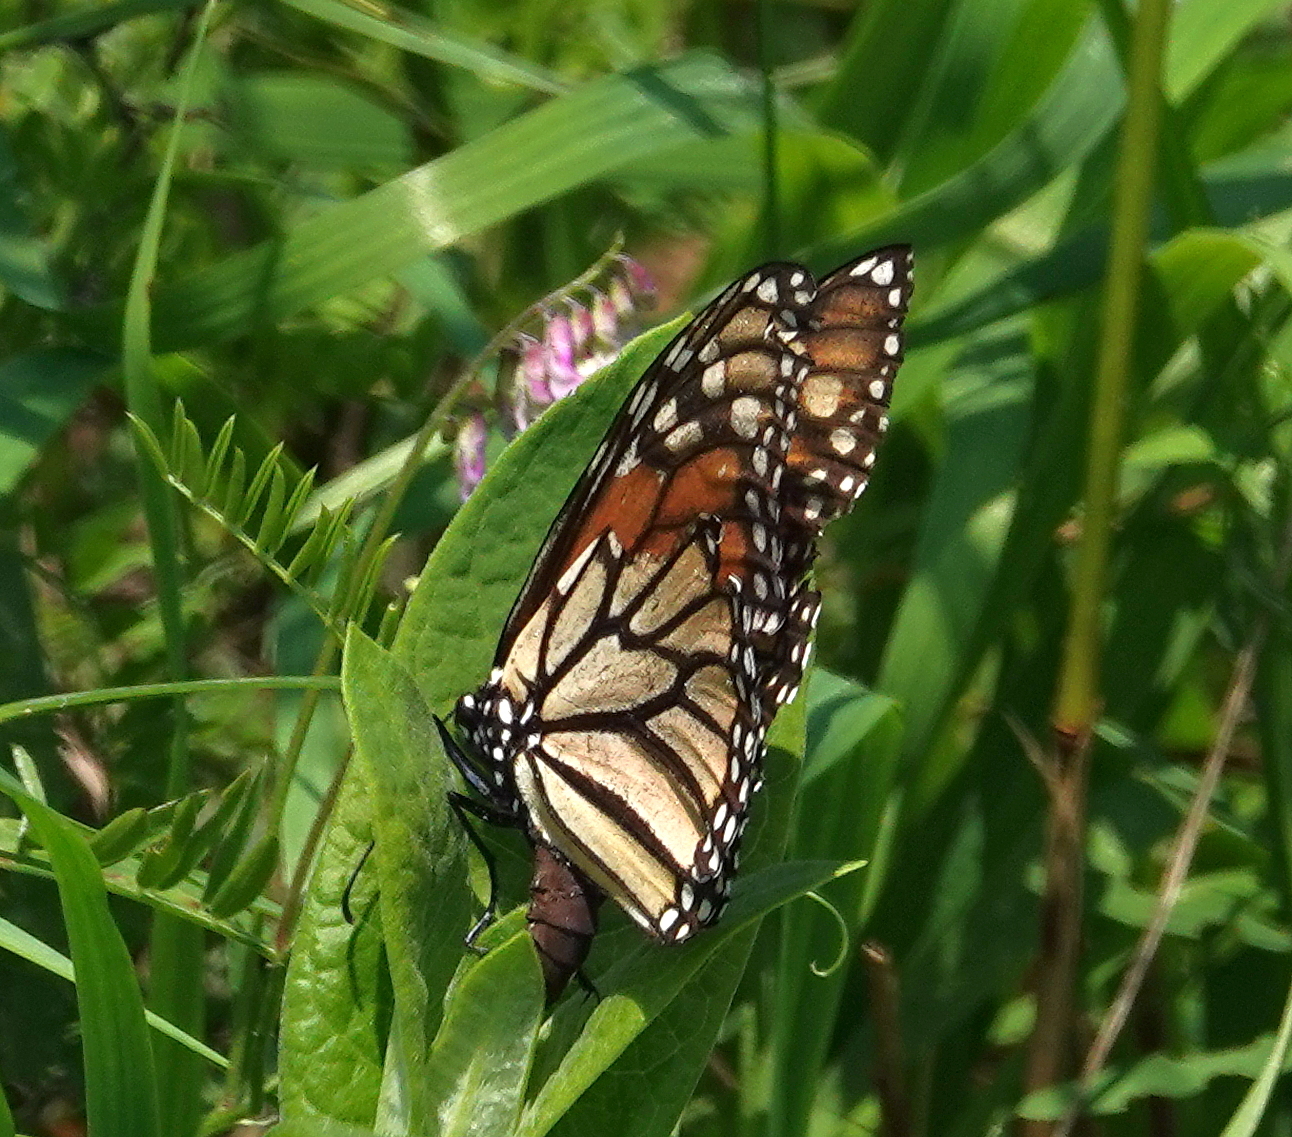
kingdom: Animalia
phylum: Arthropoda
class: Insecta
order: Lepidoptera
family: Nymphalidae
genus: Danaus
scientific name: Danaus plexippus
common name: Monarch
